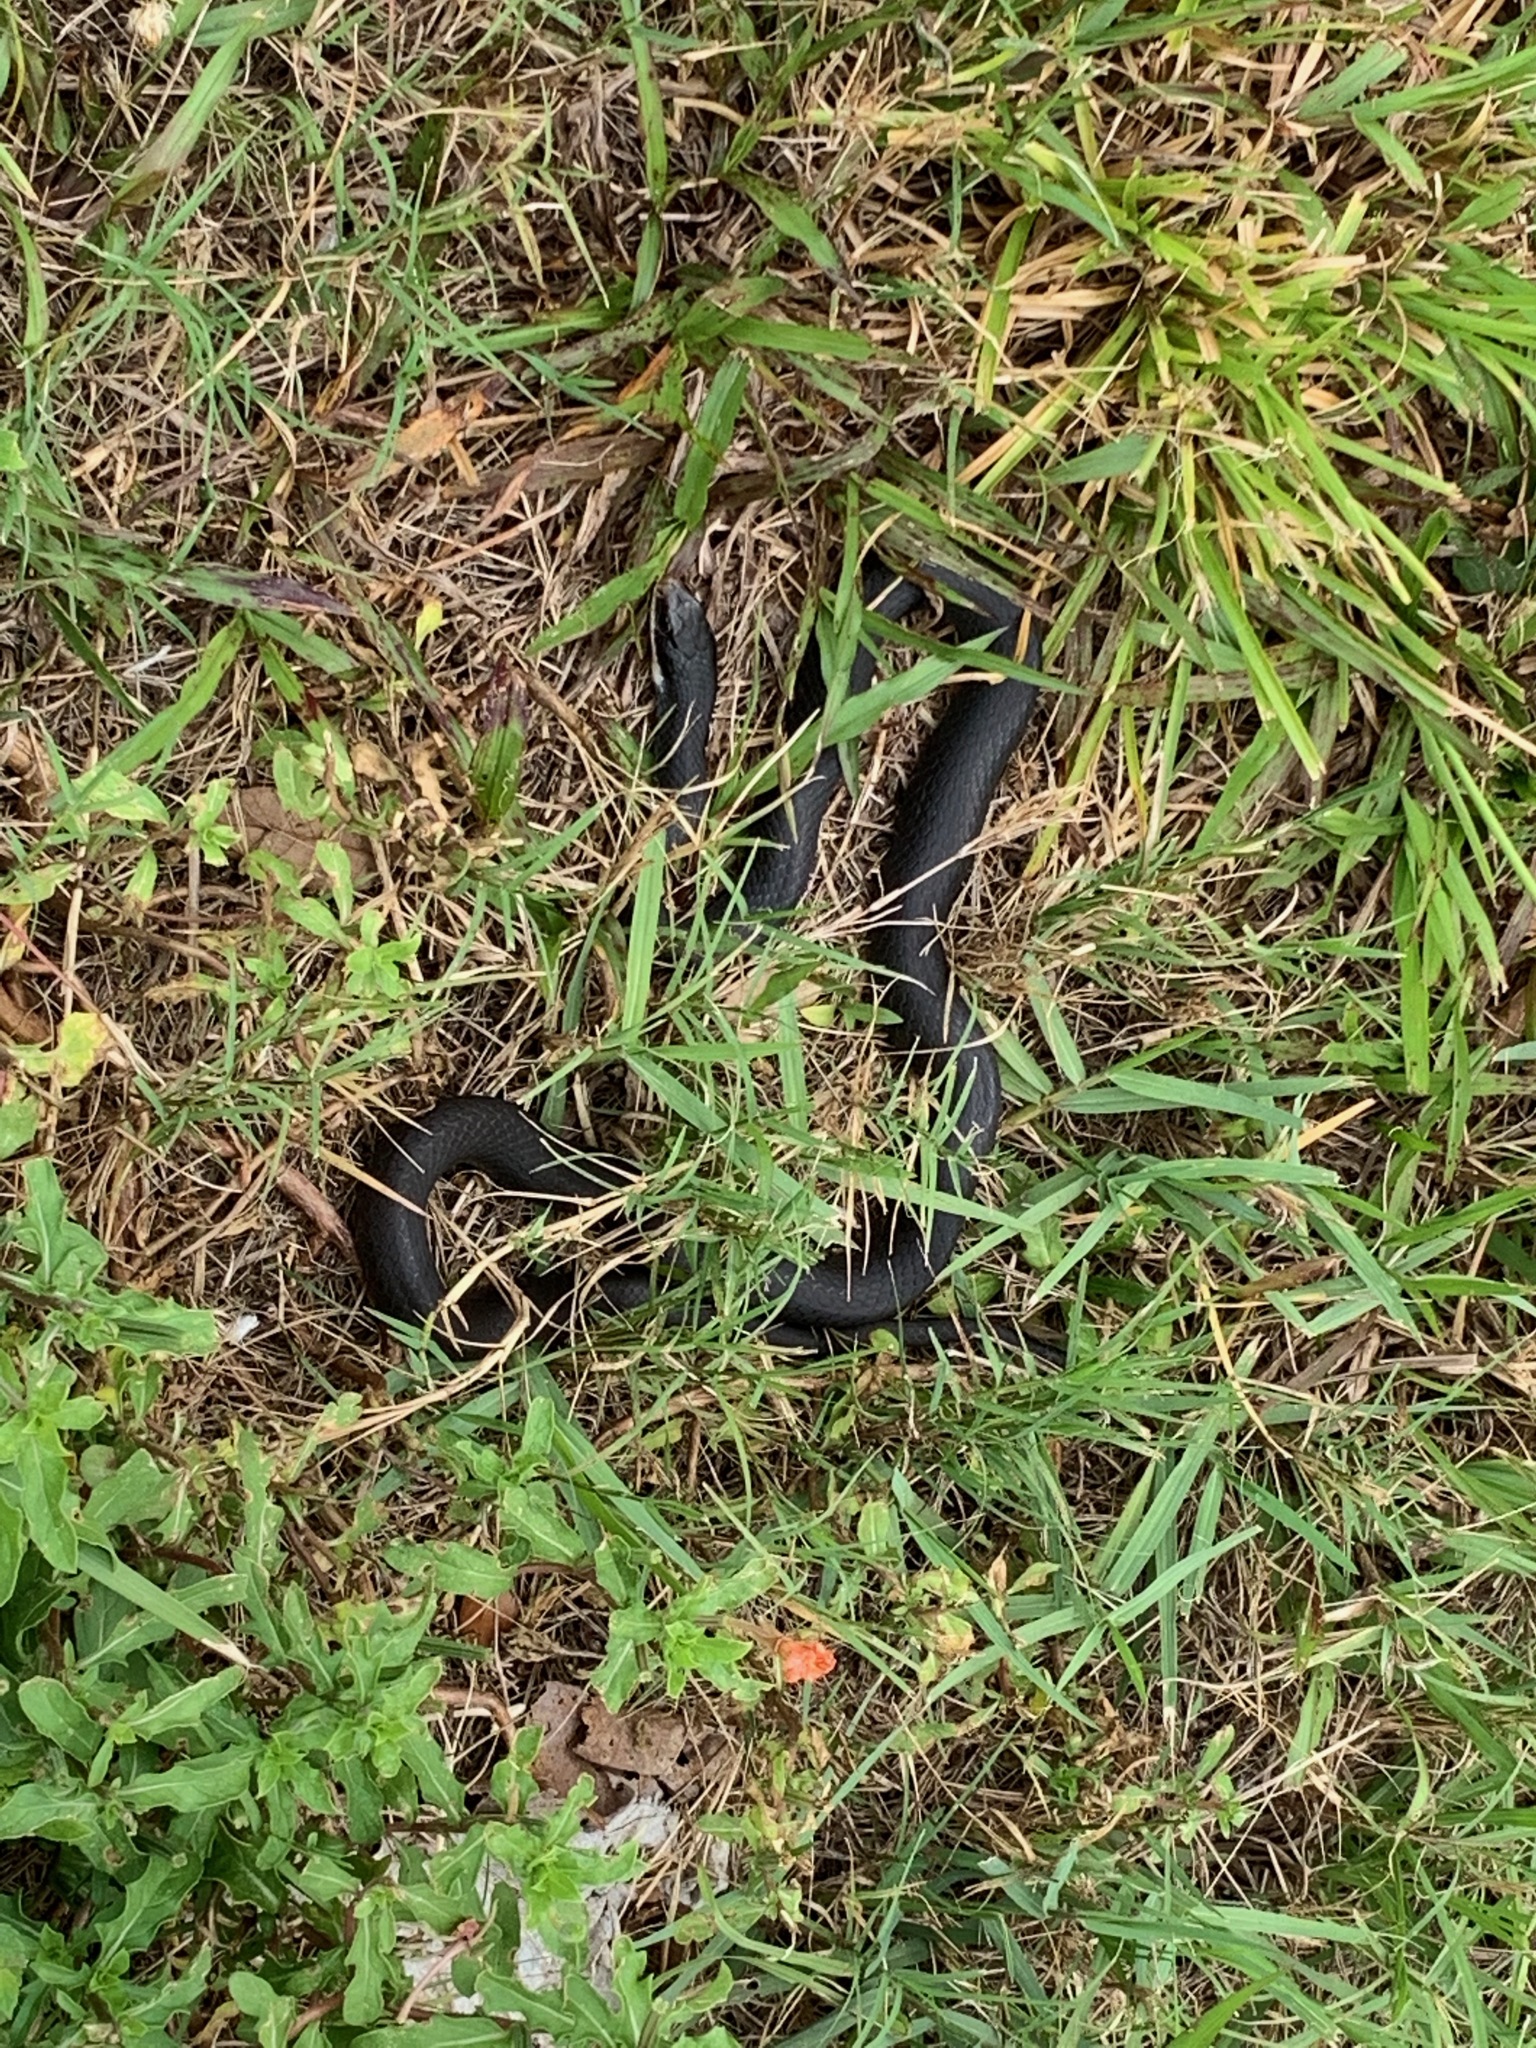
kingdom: Animalia
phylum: Chordata
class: Squamata
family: Colubridae
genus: Coluber
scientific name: Coluber constrictor
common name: Eastern racer
